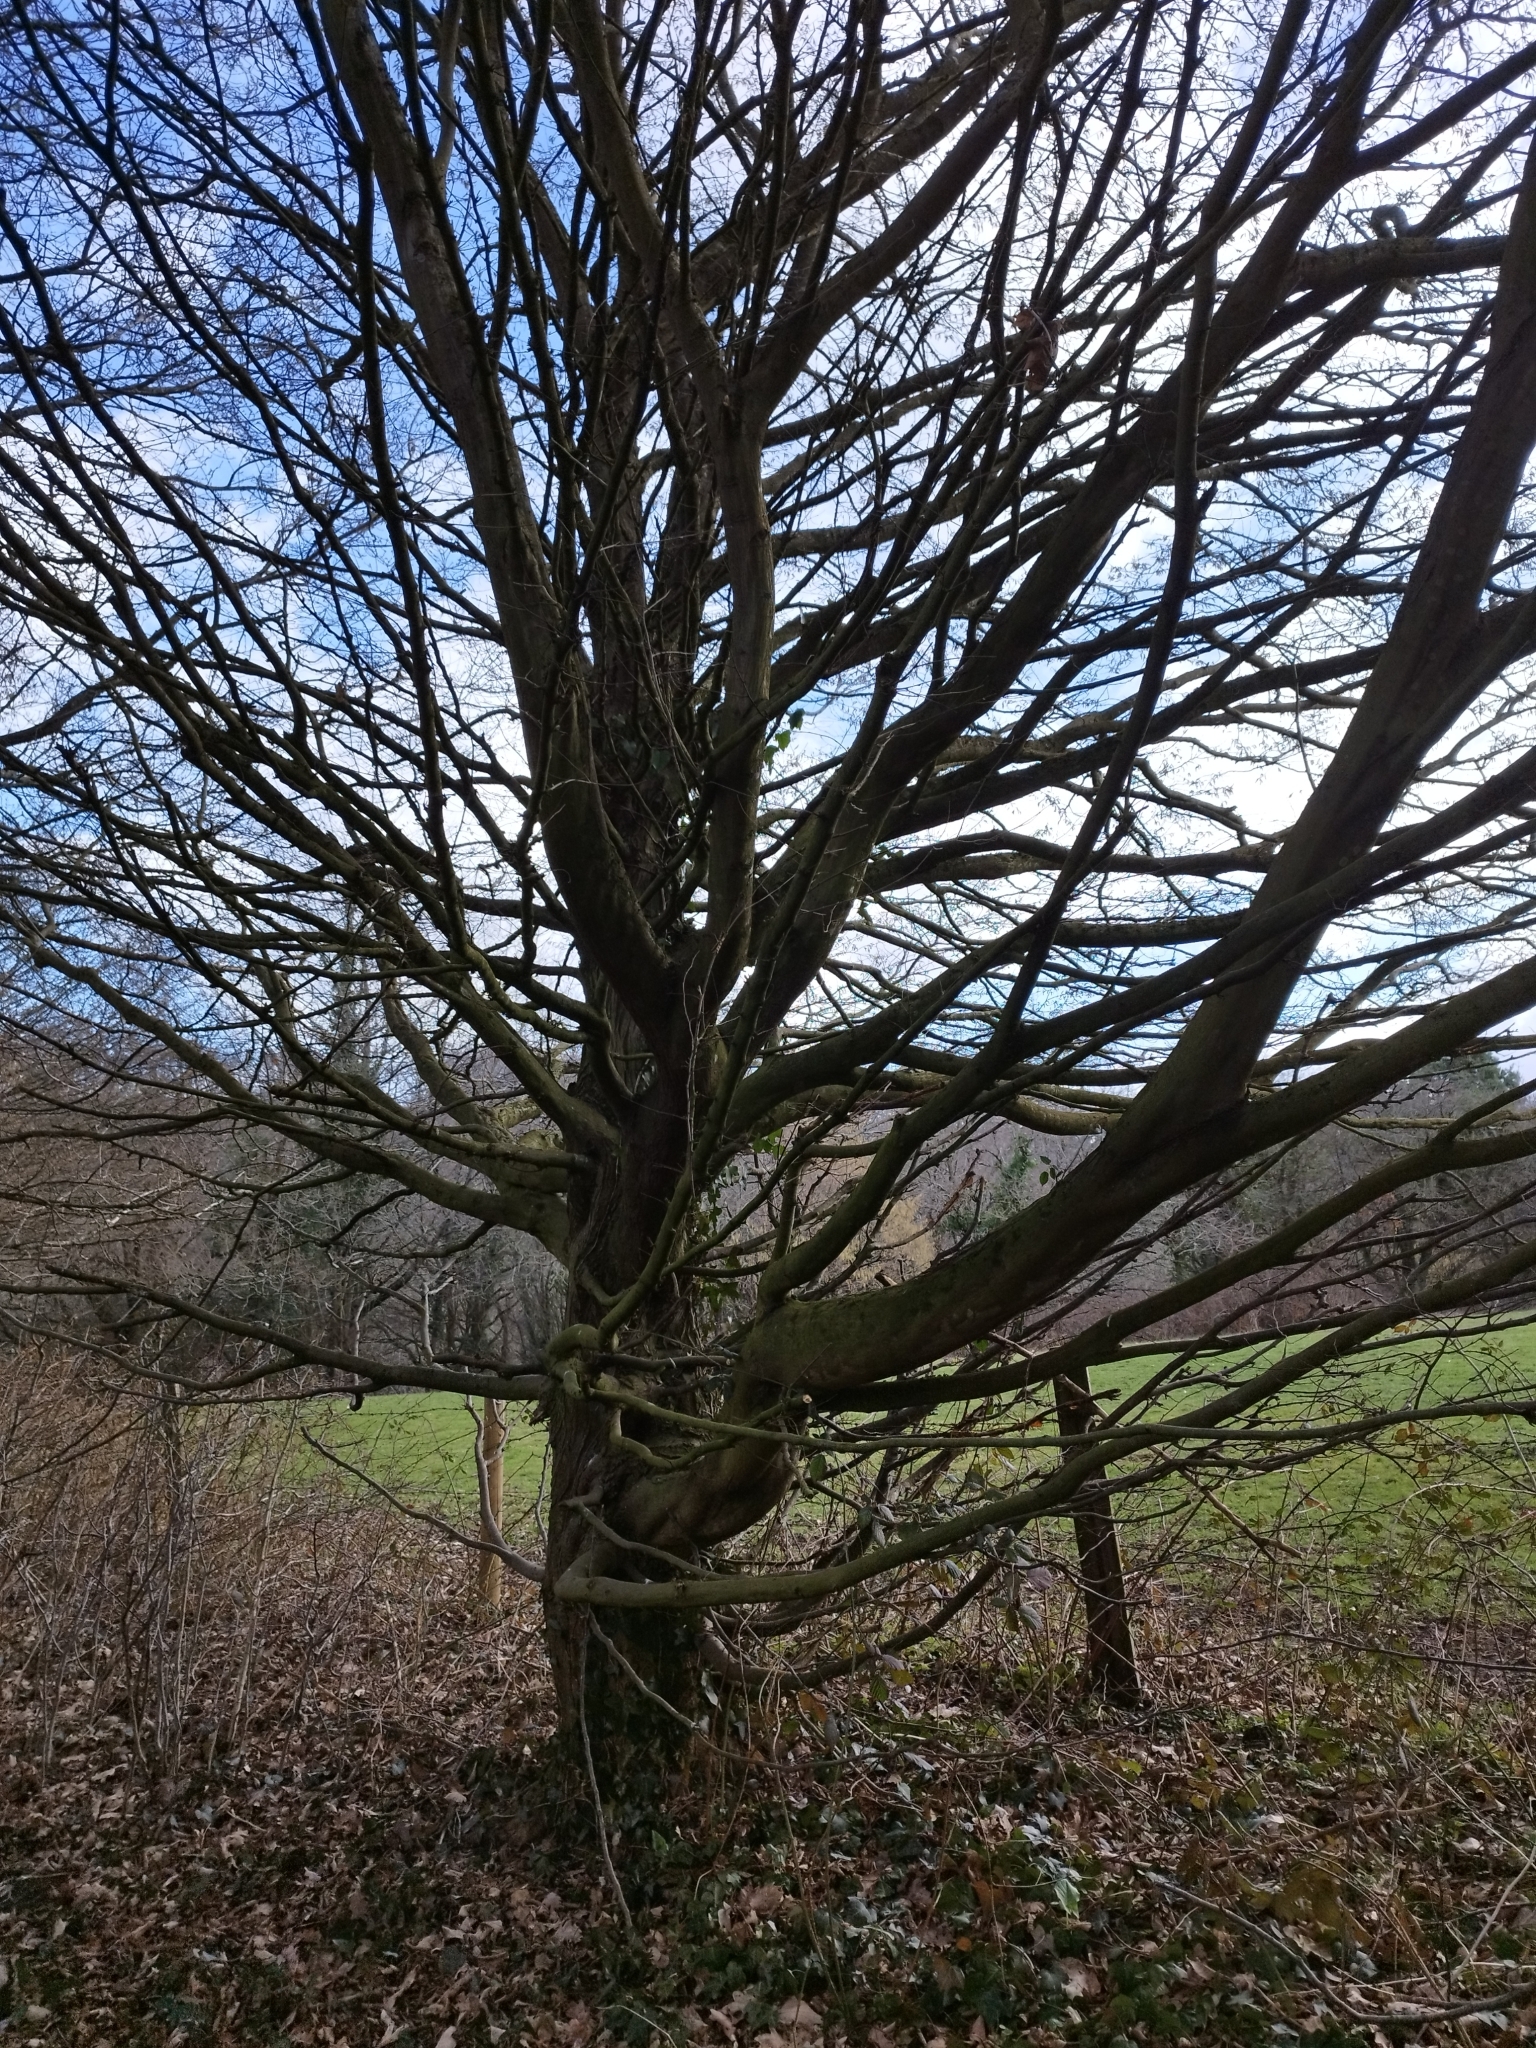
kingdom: Plantae
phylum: Tracheophyta
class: Magnoliopsida
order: Fagales
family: Fagaceae
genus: Fagus
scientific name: Fagus sylvatica
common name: Beech
